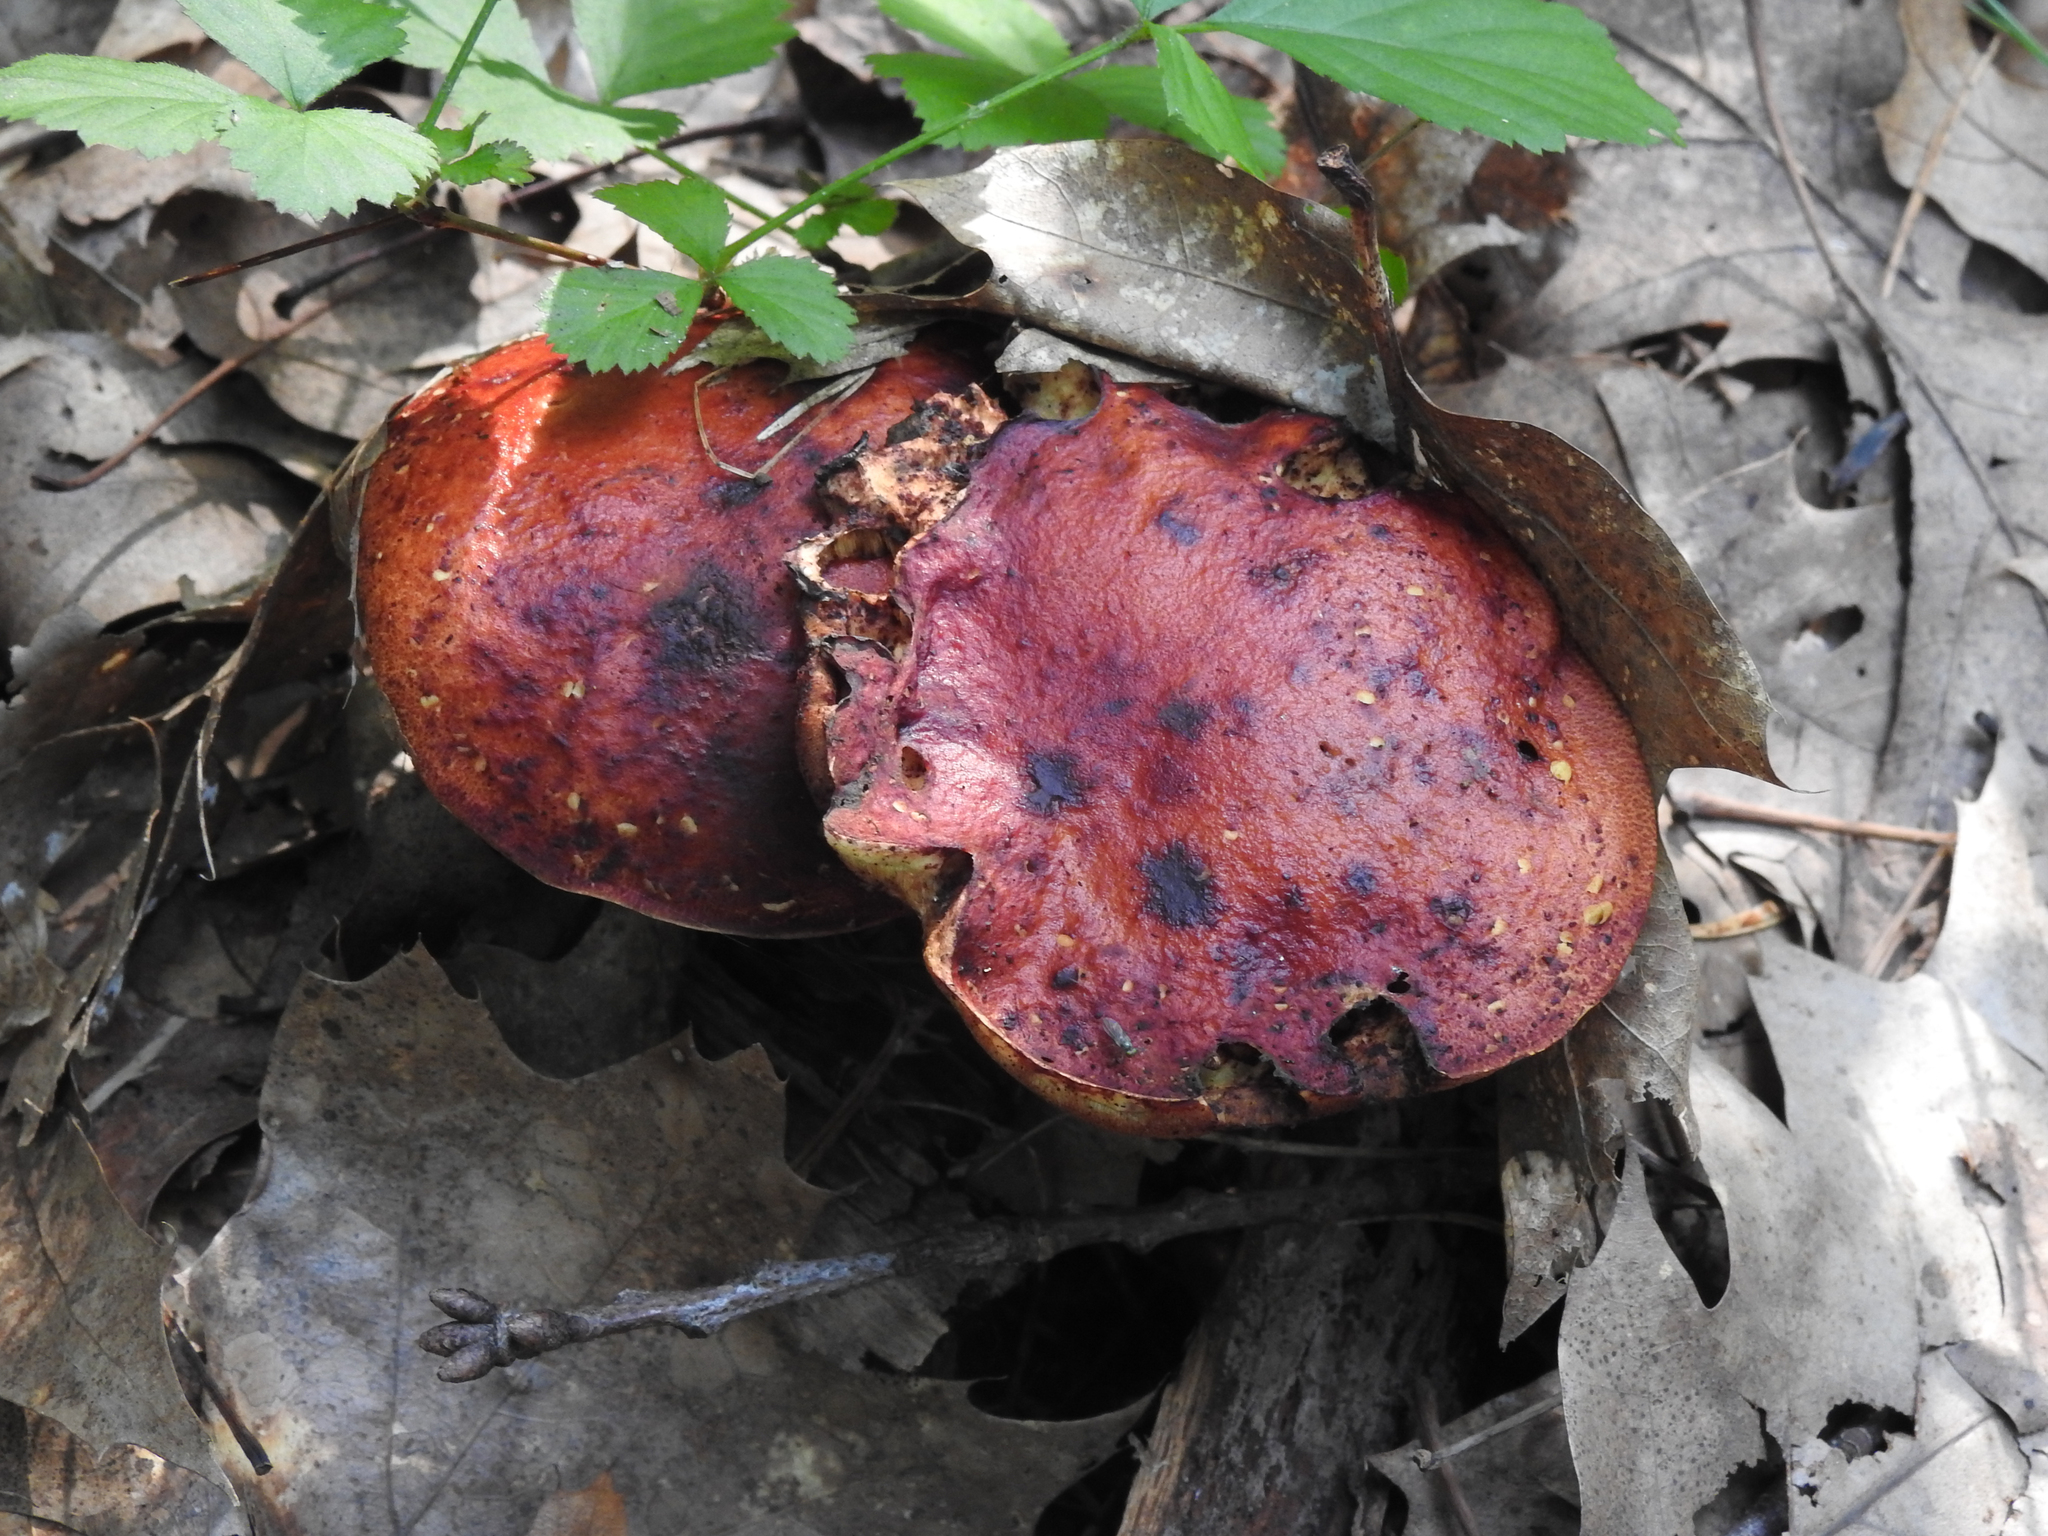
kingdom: Fungi
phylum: Basidiomycota
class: Agaricomycetes
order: Boletales
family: Boletaceae
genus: Butyriboletus
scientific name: Butyriboletus frostii
